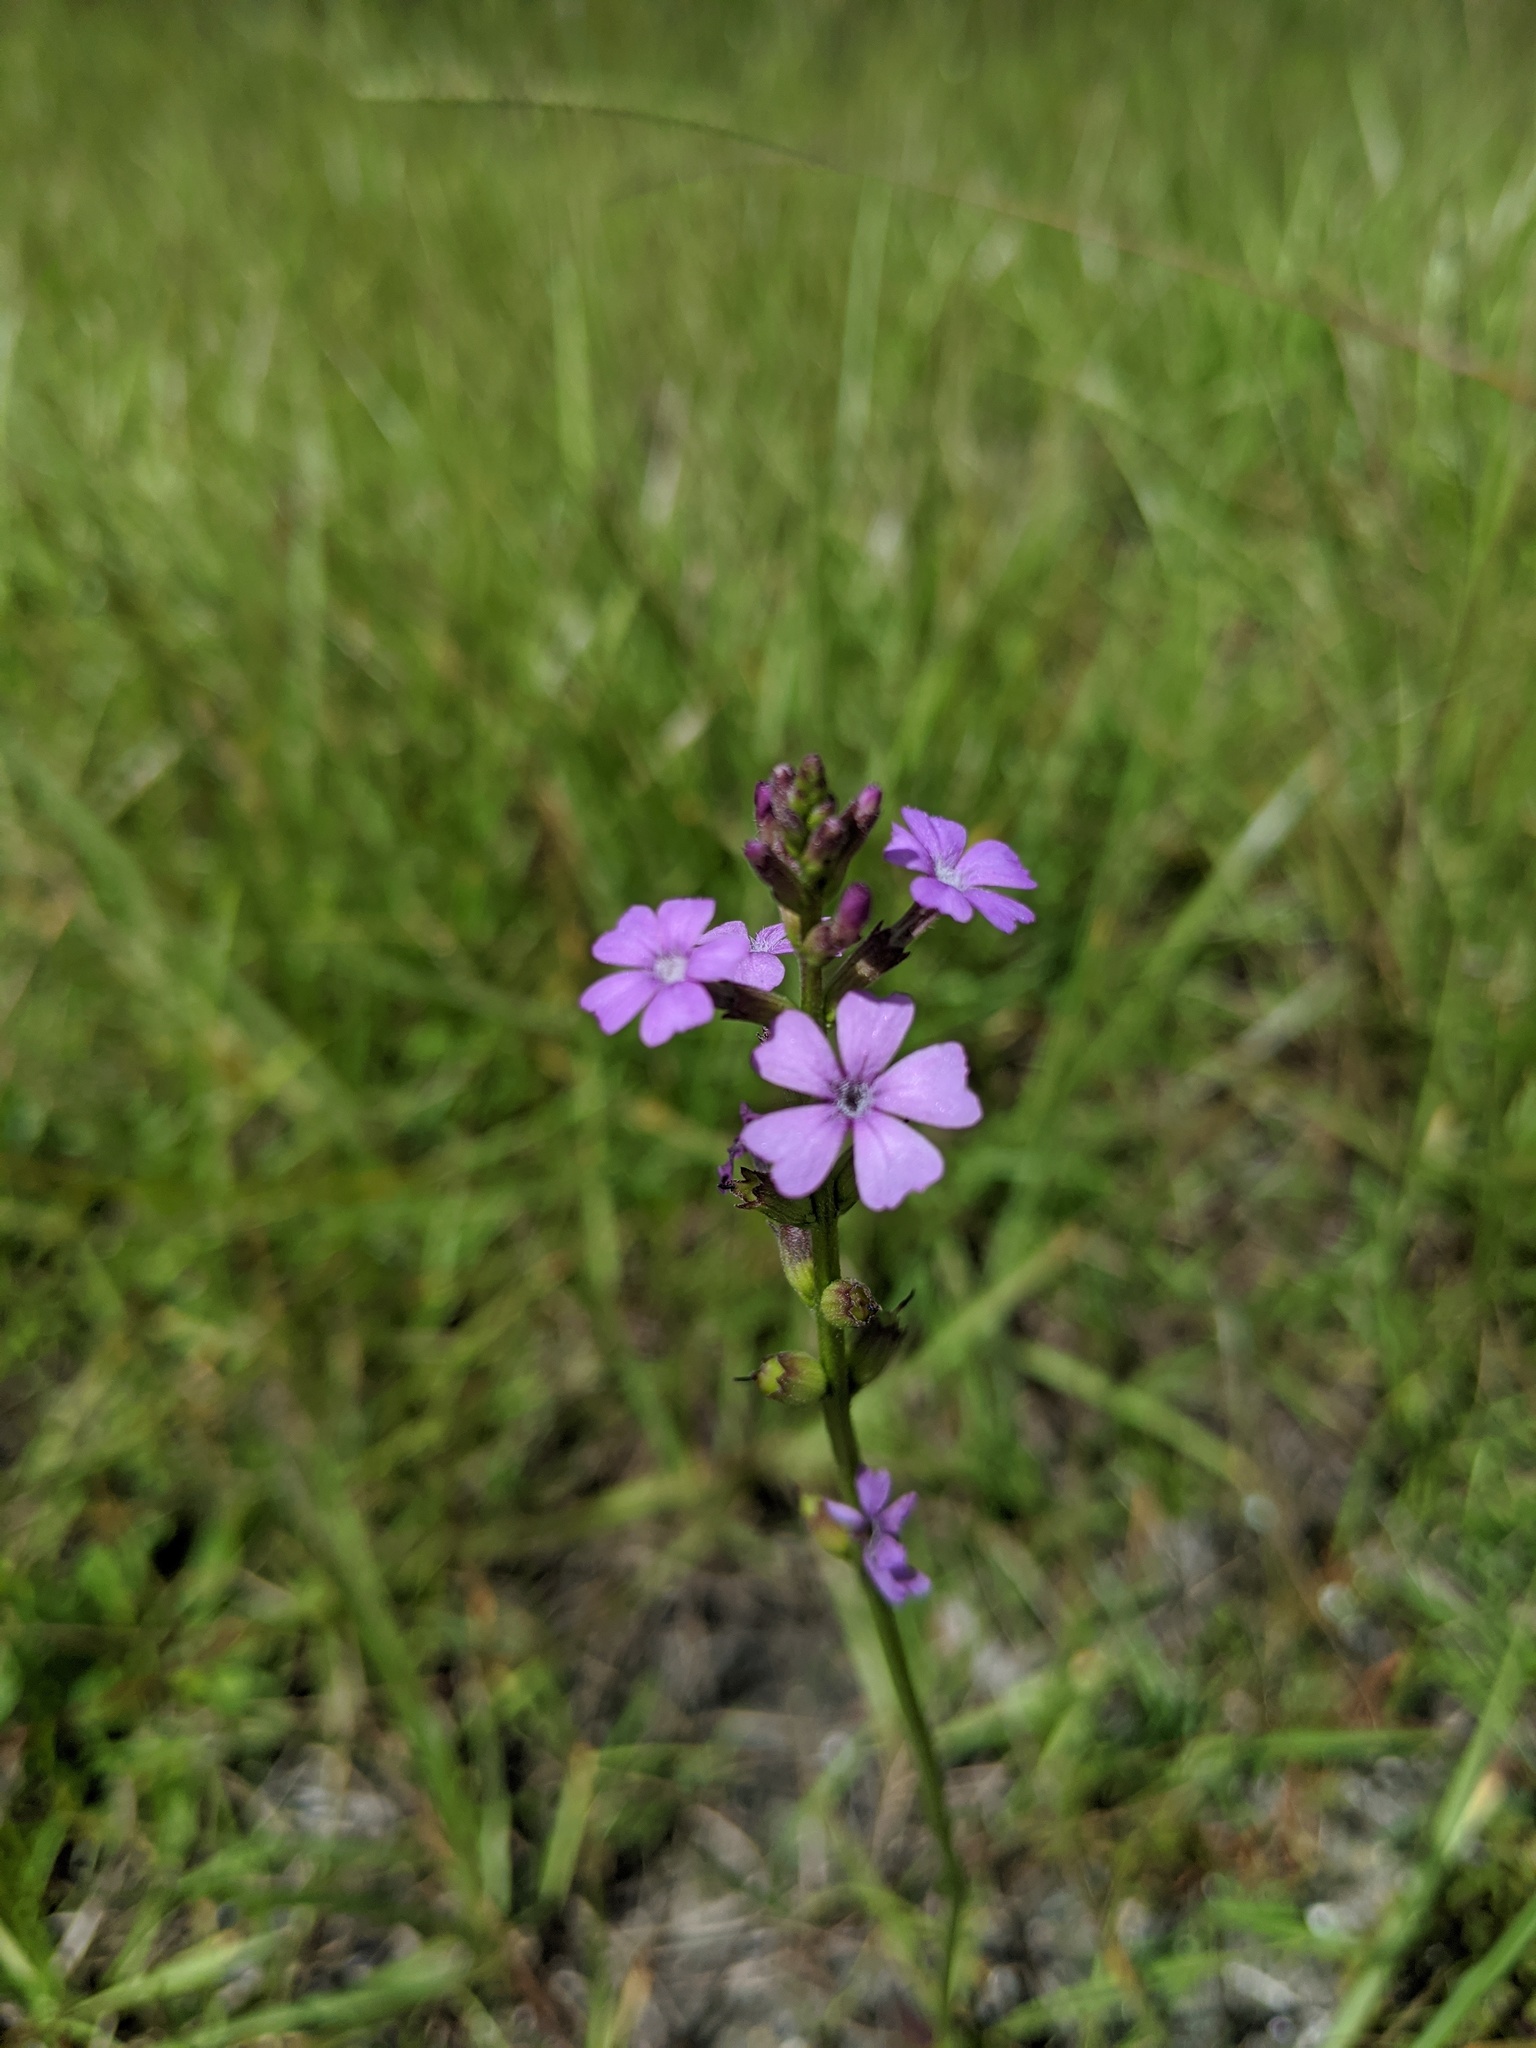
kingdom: Plantae
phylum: Tracheophyta
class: Magnoliopsida
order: Lamiales
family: Orobanchaceae
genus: Buchnera
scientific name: Buchnera floridana
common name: Florida bluehearts
